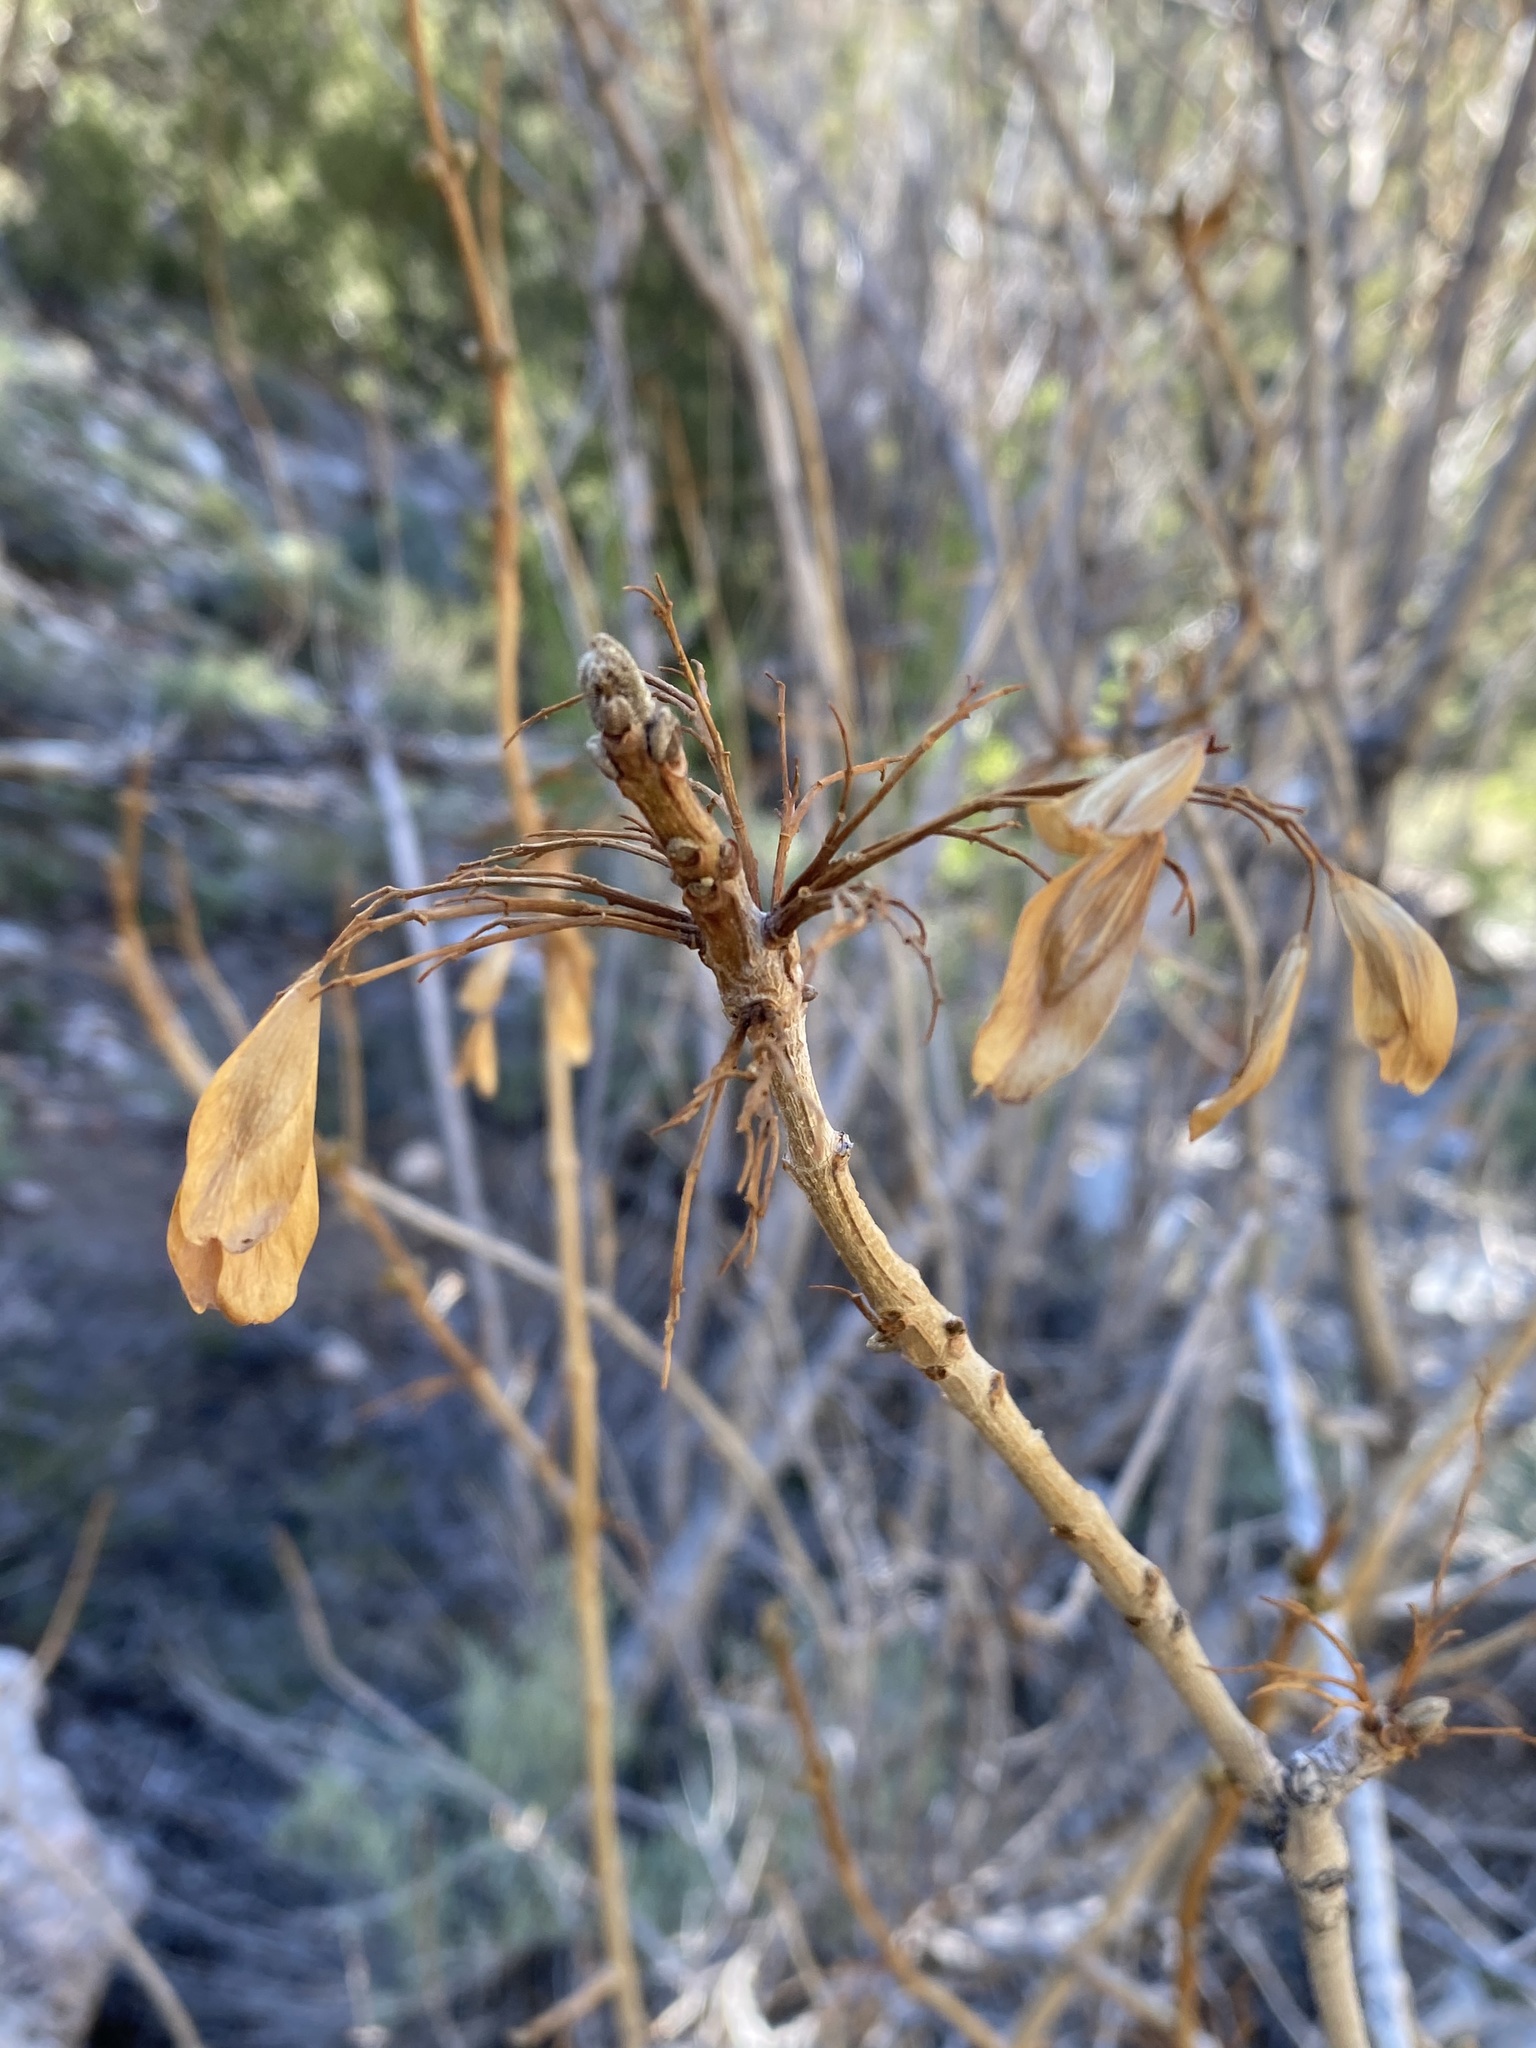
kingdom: Plantae
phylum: Tracheophyta
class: Magnoliopsida
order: Lamiales
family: Oleaceae
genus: Fraxinus
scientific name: Fraxinus anomala
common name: Utah ash
